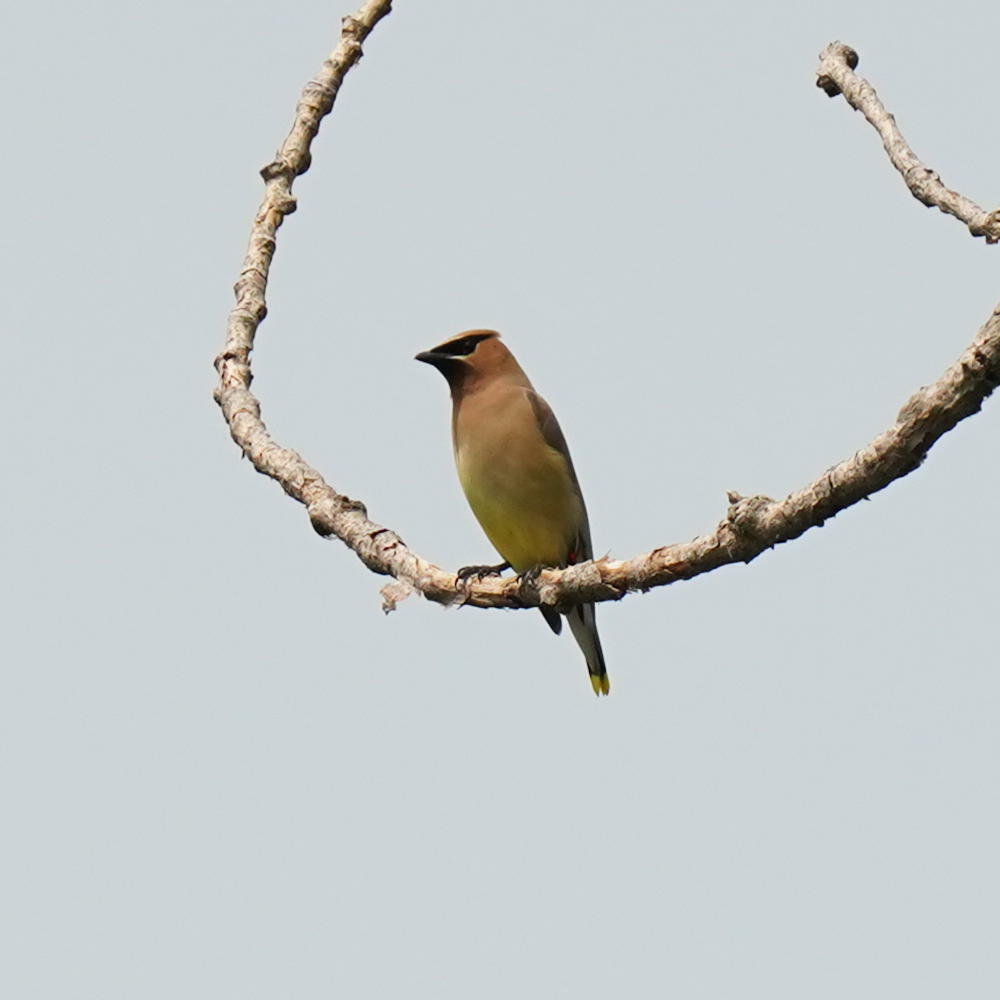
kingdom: Animalia
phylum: Chordata
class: Aves
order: Passeriformes
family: Bombycillidae
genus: Bombycilla
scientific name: Bombycilla cedrorum
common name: Cedar waxwing
